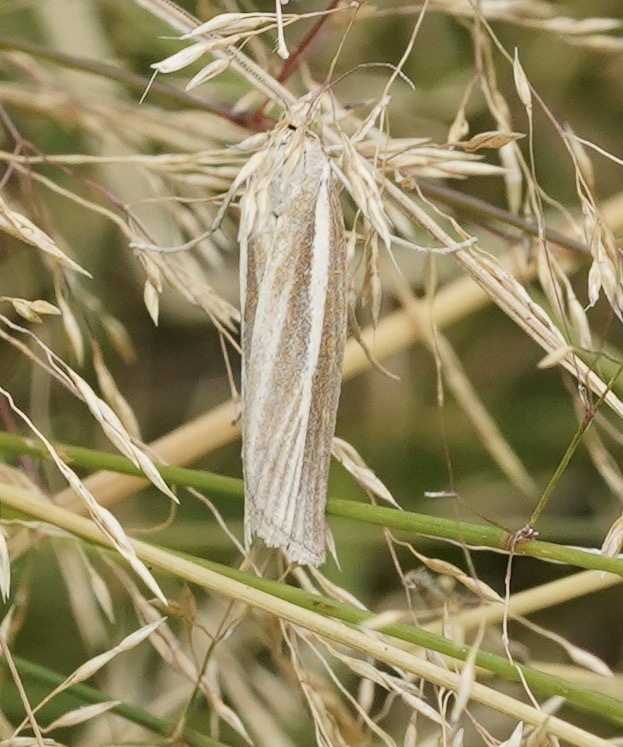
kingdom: Animalia
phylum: Arthropoda
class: Insecta
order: Lepidoptera
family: Crambidae
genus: Agriphila
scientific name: Agriphila tristellus
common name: Common grass-veneer
